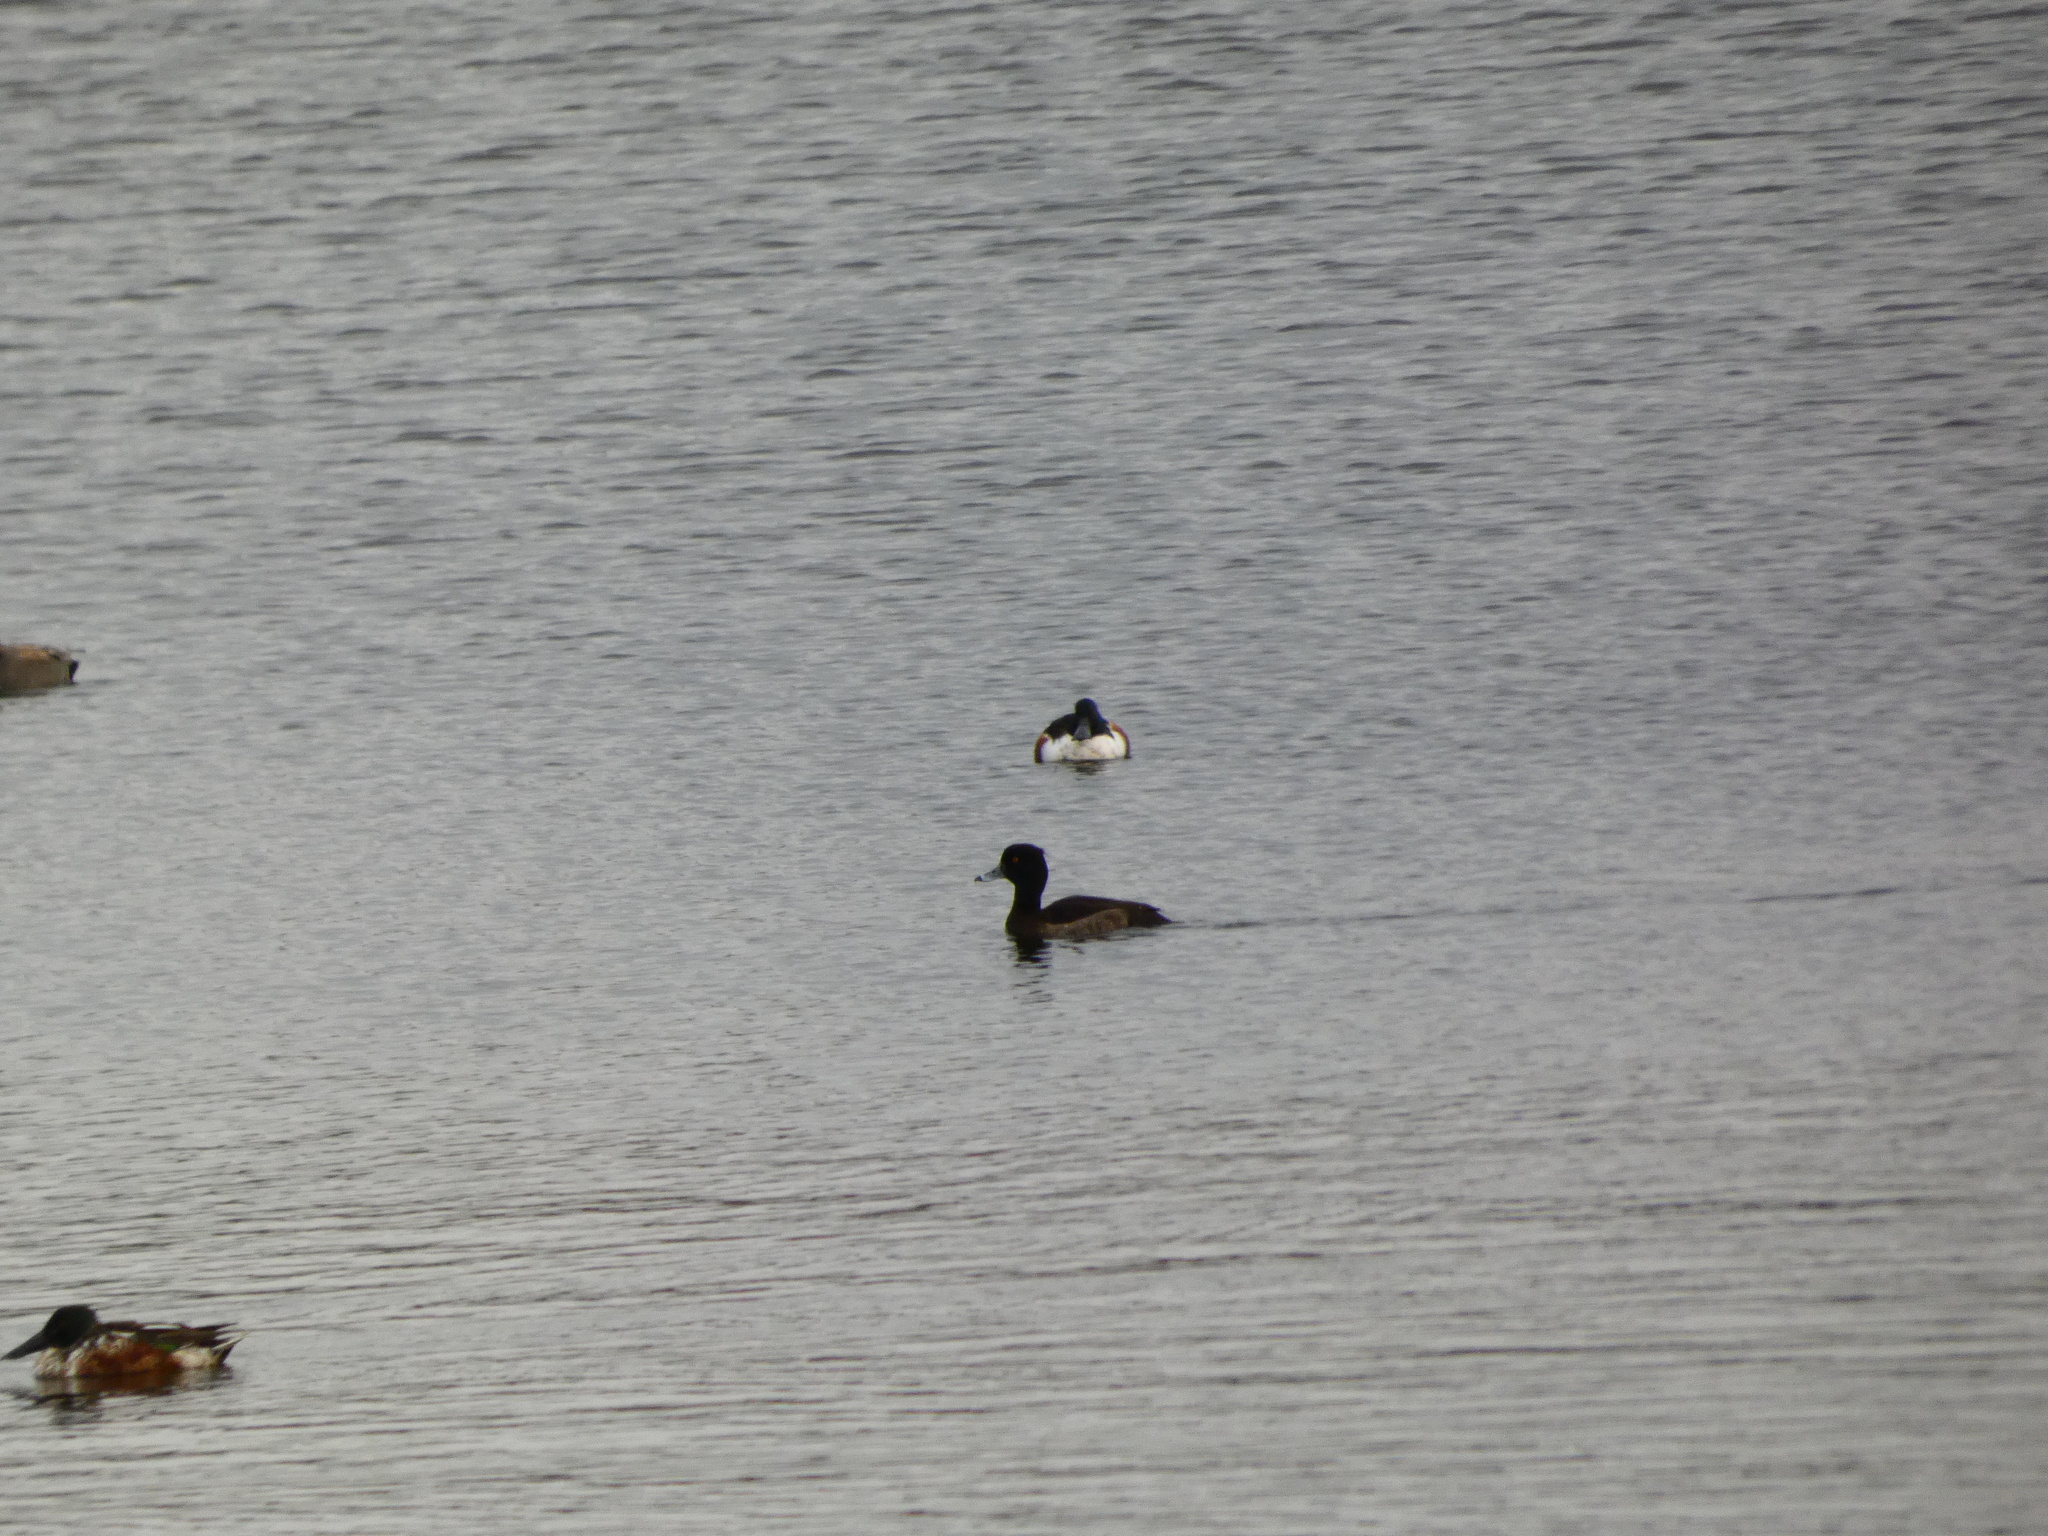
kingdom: Animalia
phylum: Chordata
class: Aves
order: Anseriformes
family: Anatidae
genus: Aythya
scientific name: Aythya fuligula
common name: Tufted duck
